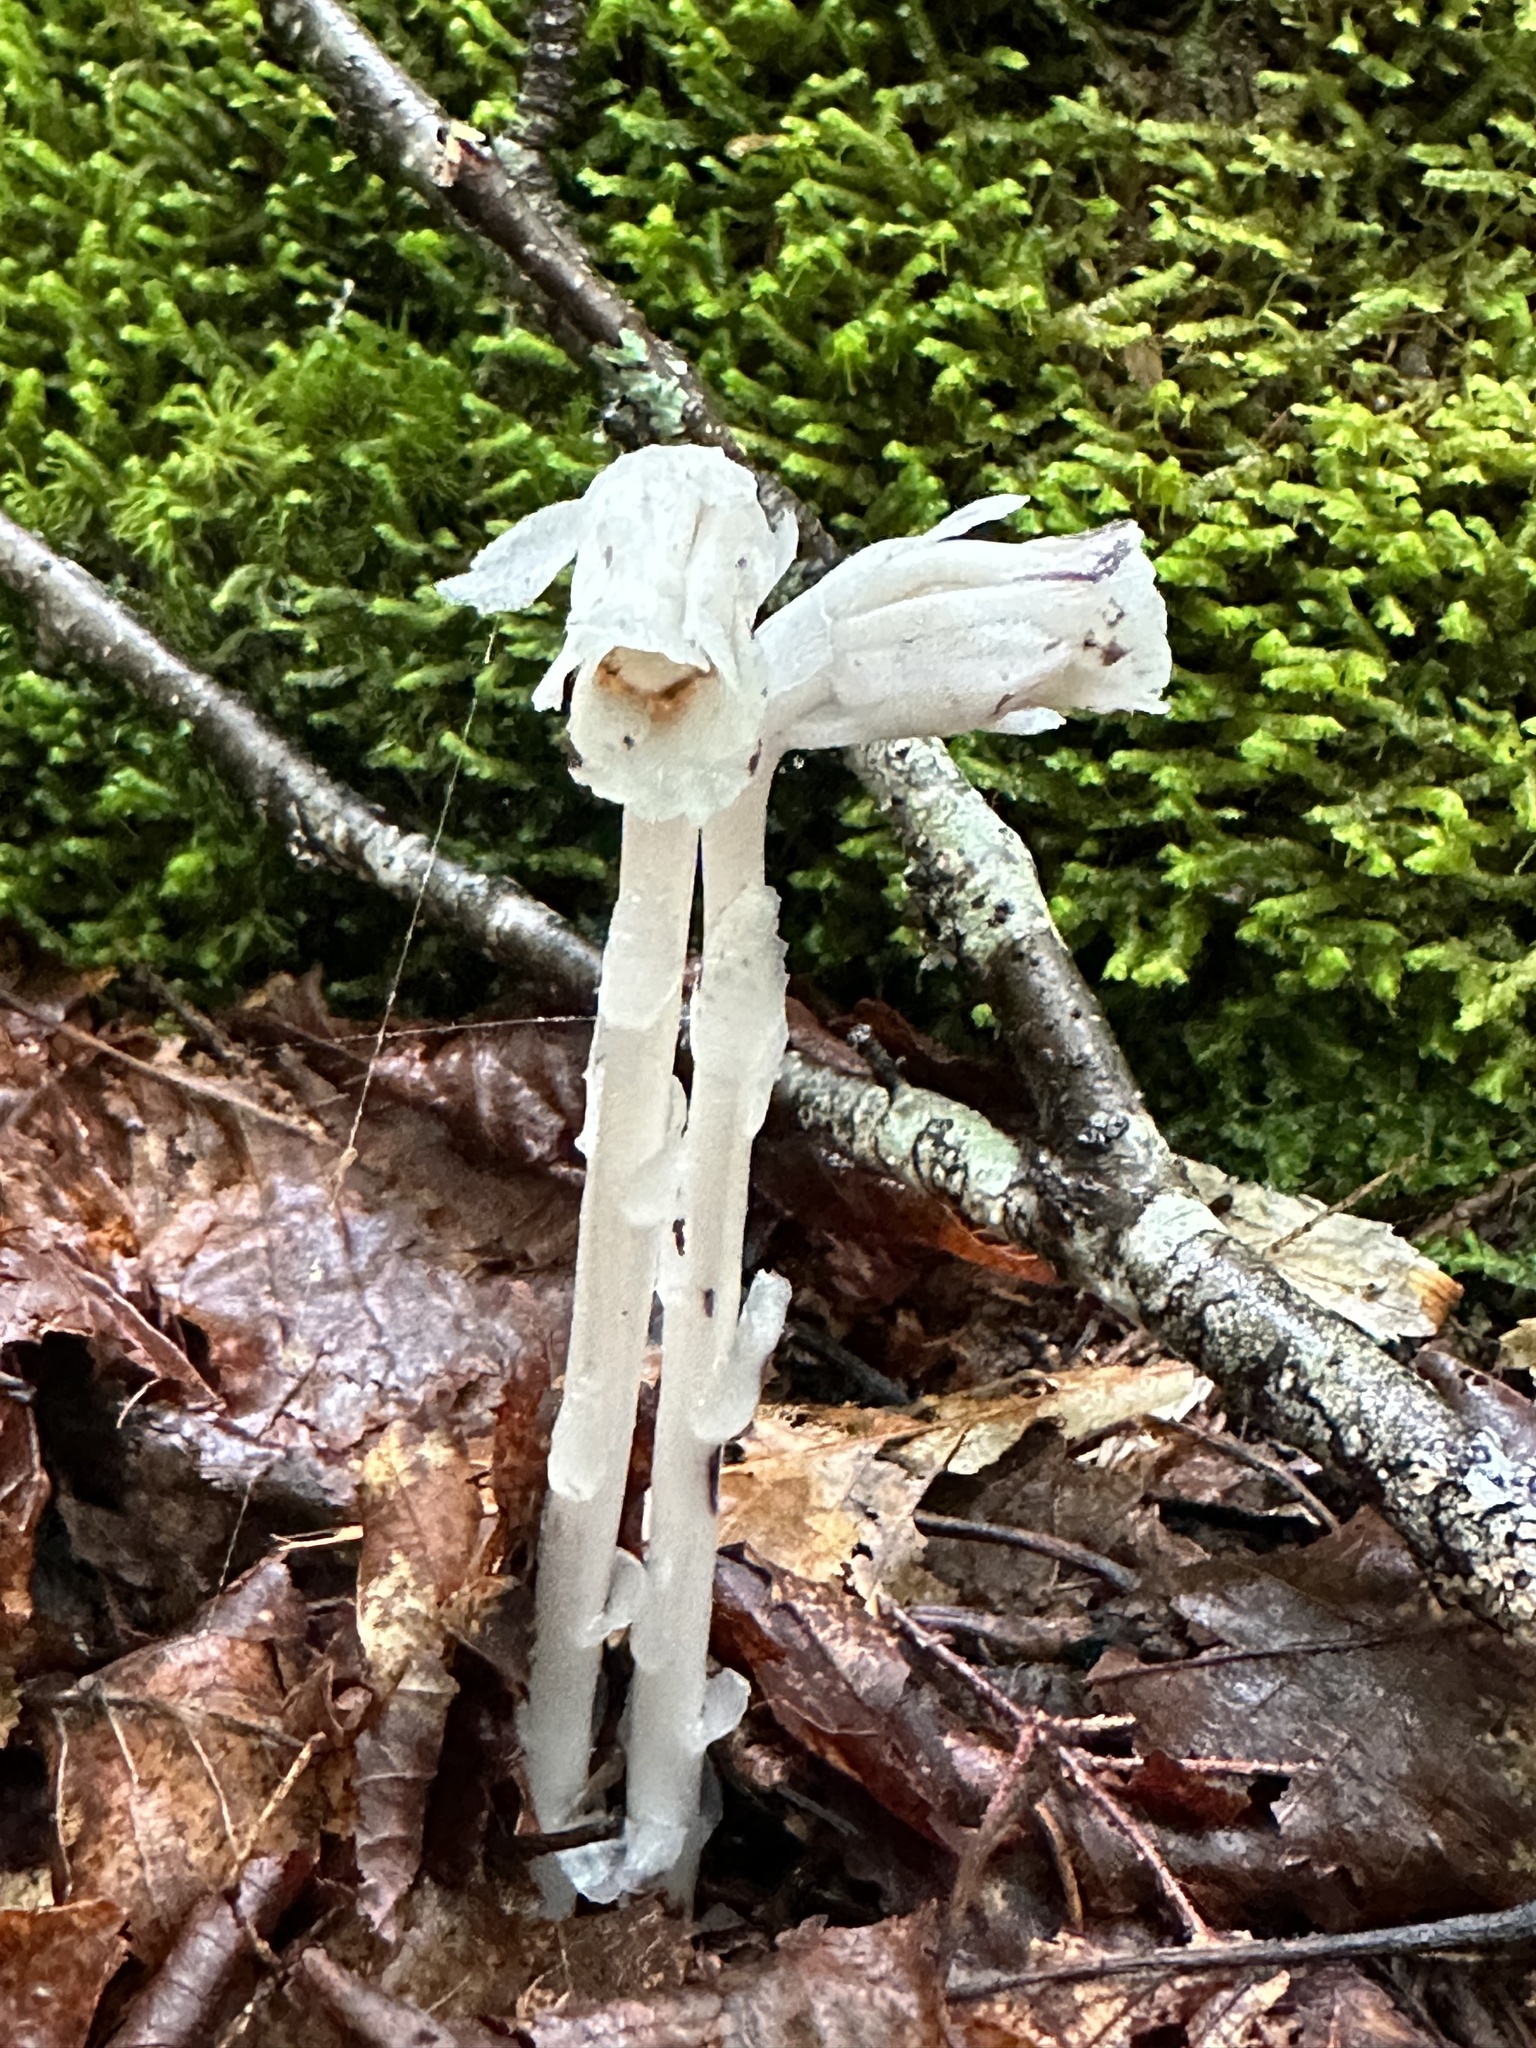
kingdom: Plantae
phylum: Tracheophyta
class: Magnoliopsida
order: Ericales
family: Ericaceae
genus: Monotropa
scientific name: Monotropa uniflora
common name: Convulsion root
